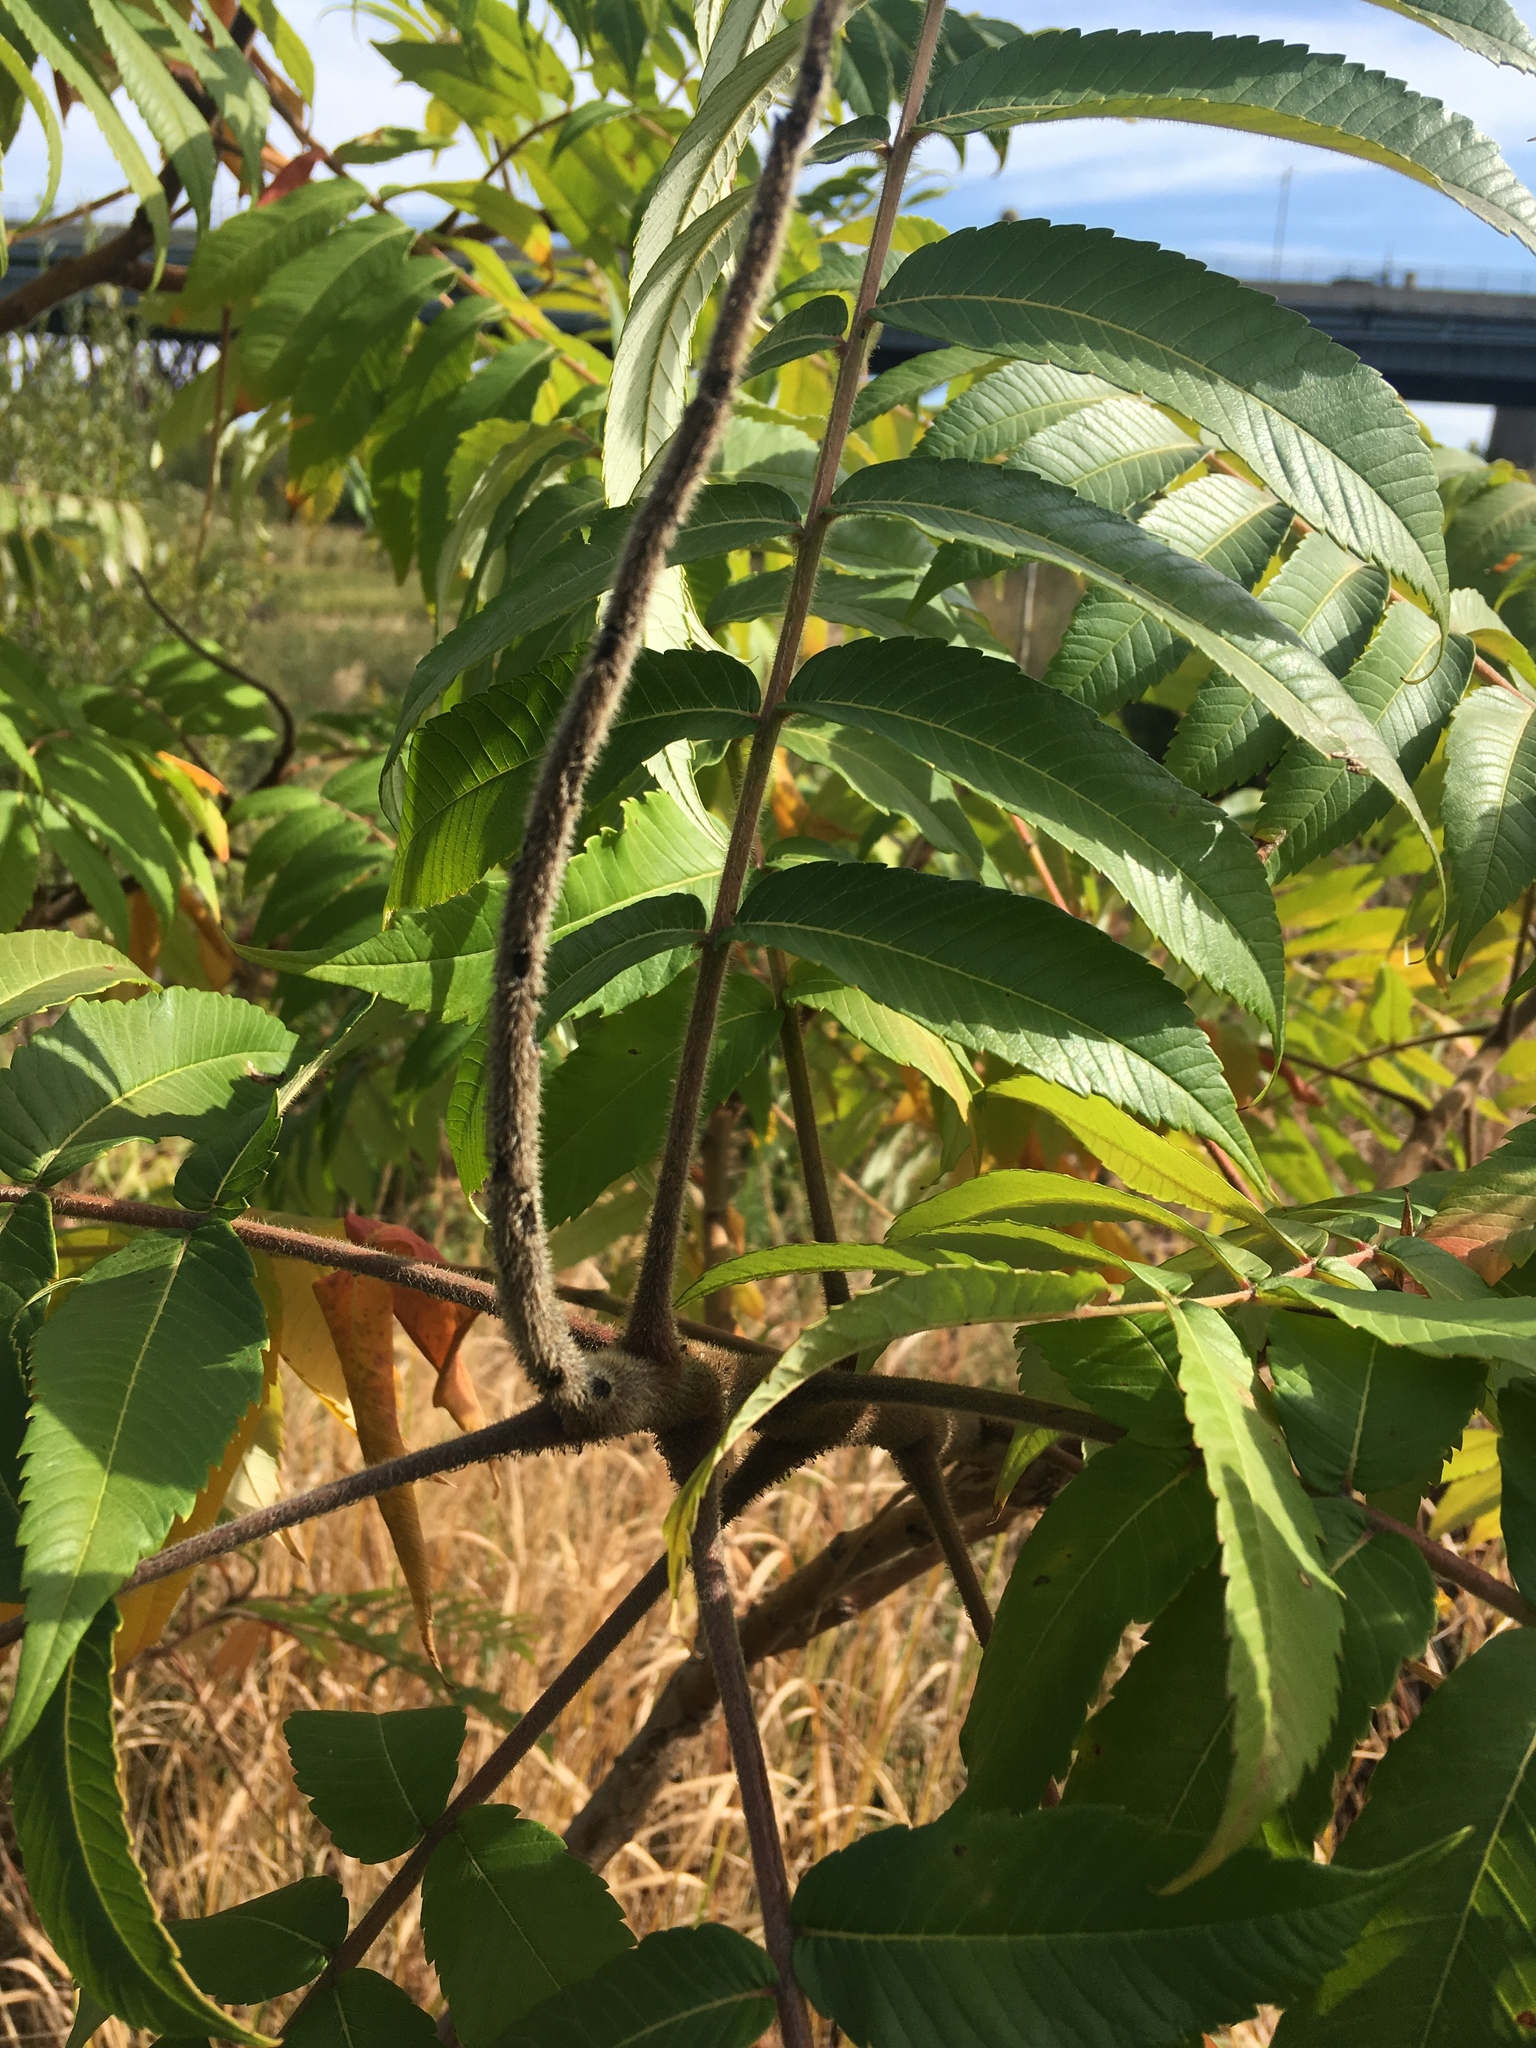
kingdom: Plantae
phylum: Tracheophyta
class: Magnoliopsida
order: Sapindales
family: Anacardiaceae
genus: Rhus
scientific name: Rhus typhina
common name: Staghorn sumac
